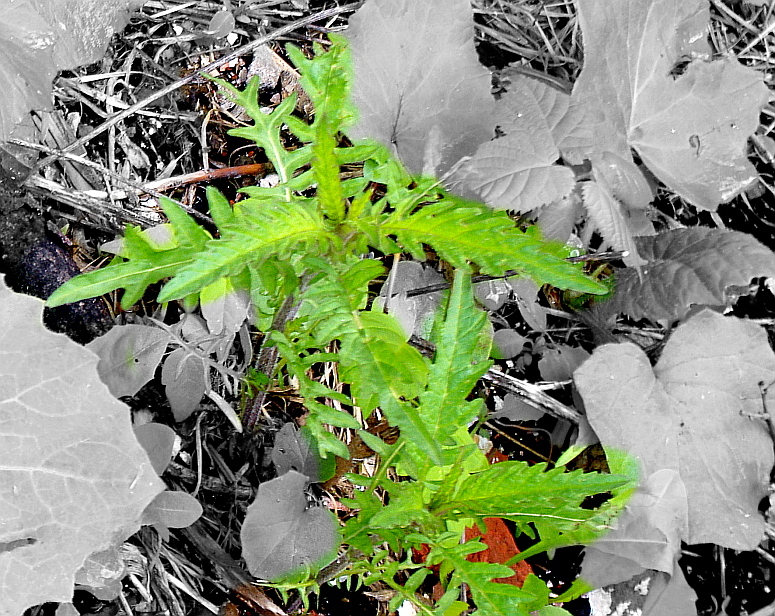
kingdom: Plantae
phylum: Tracheophyta
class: Magnoliopsida
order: Lamiales
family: Lamiaceae
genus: Lycopus
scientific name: Lycopus europaeus
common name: European bugleweed
